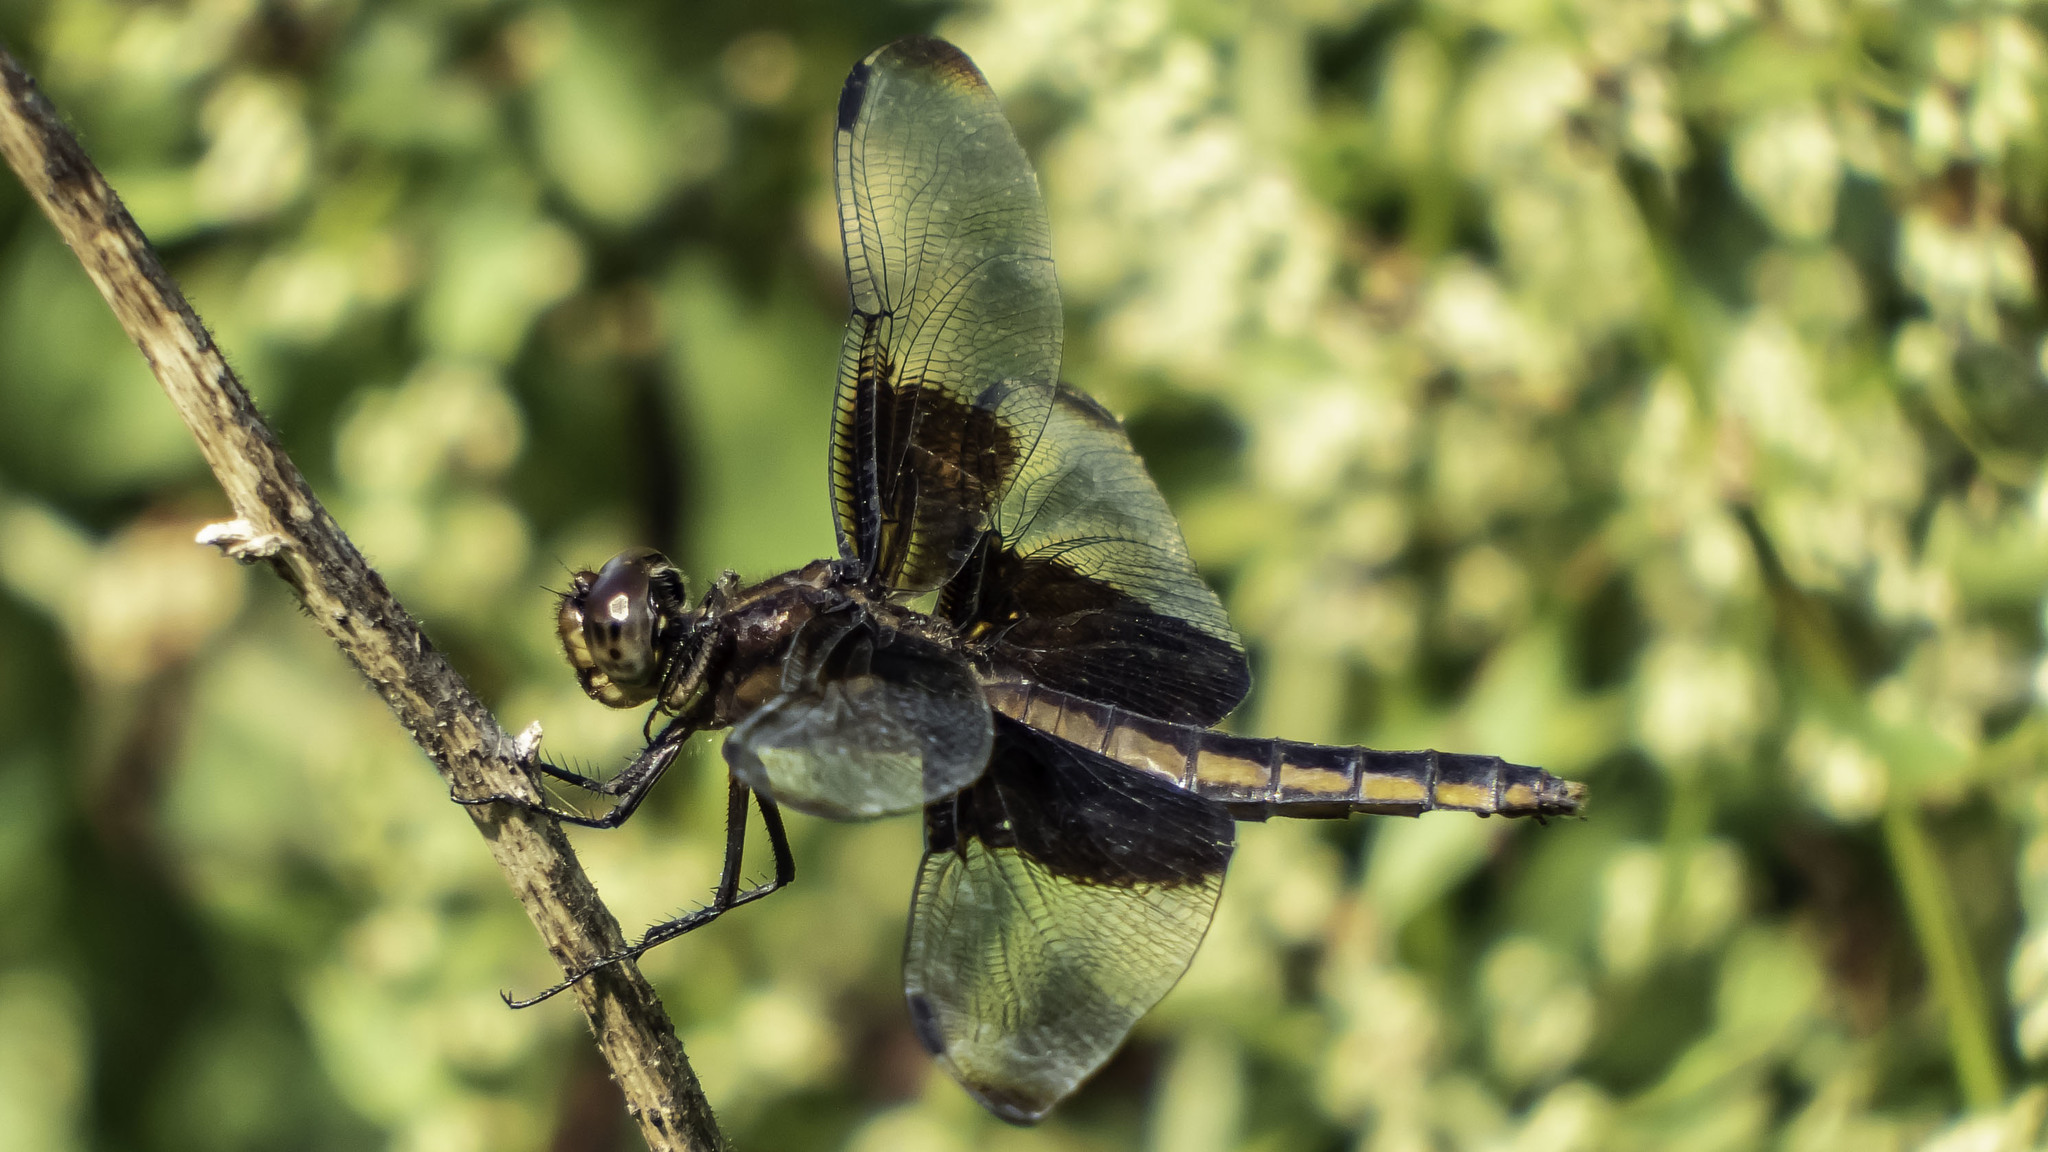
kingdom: Animalia
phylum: Arthropoda
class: Insecta
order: Odonata
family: Libellulidae
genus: Libellula
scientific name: Libellula luctuosa
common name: Widow skimmer
